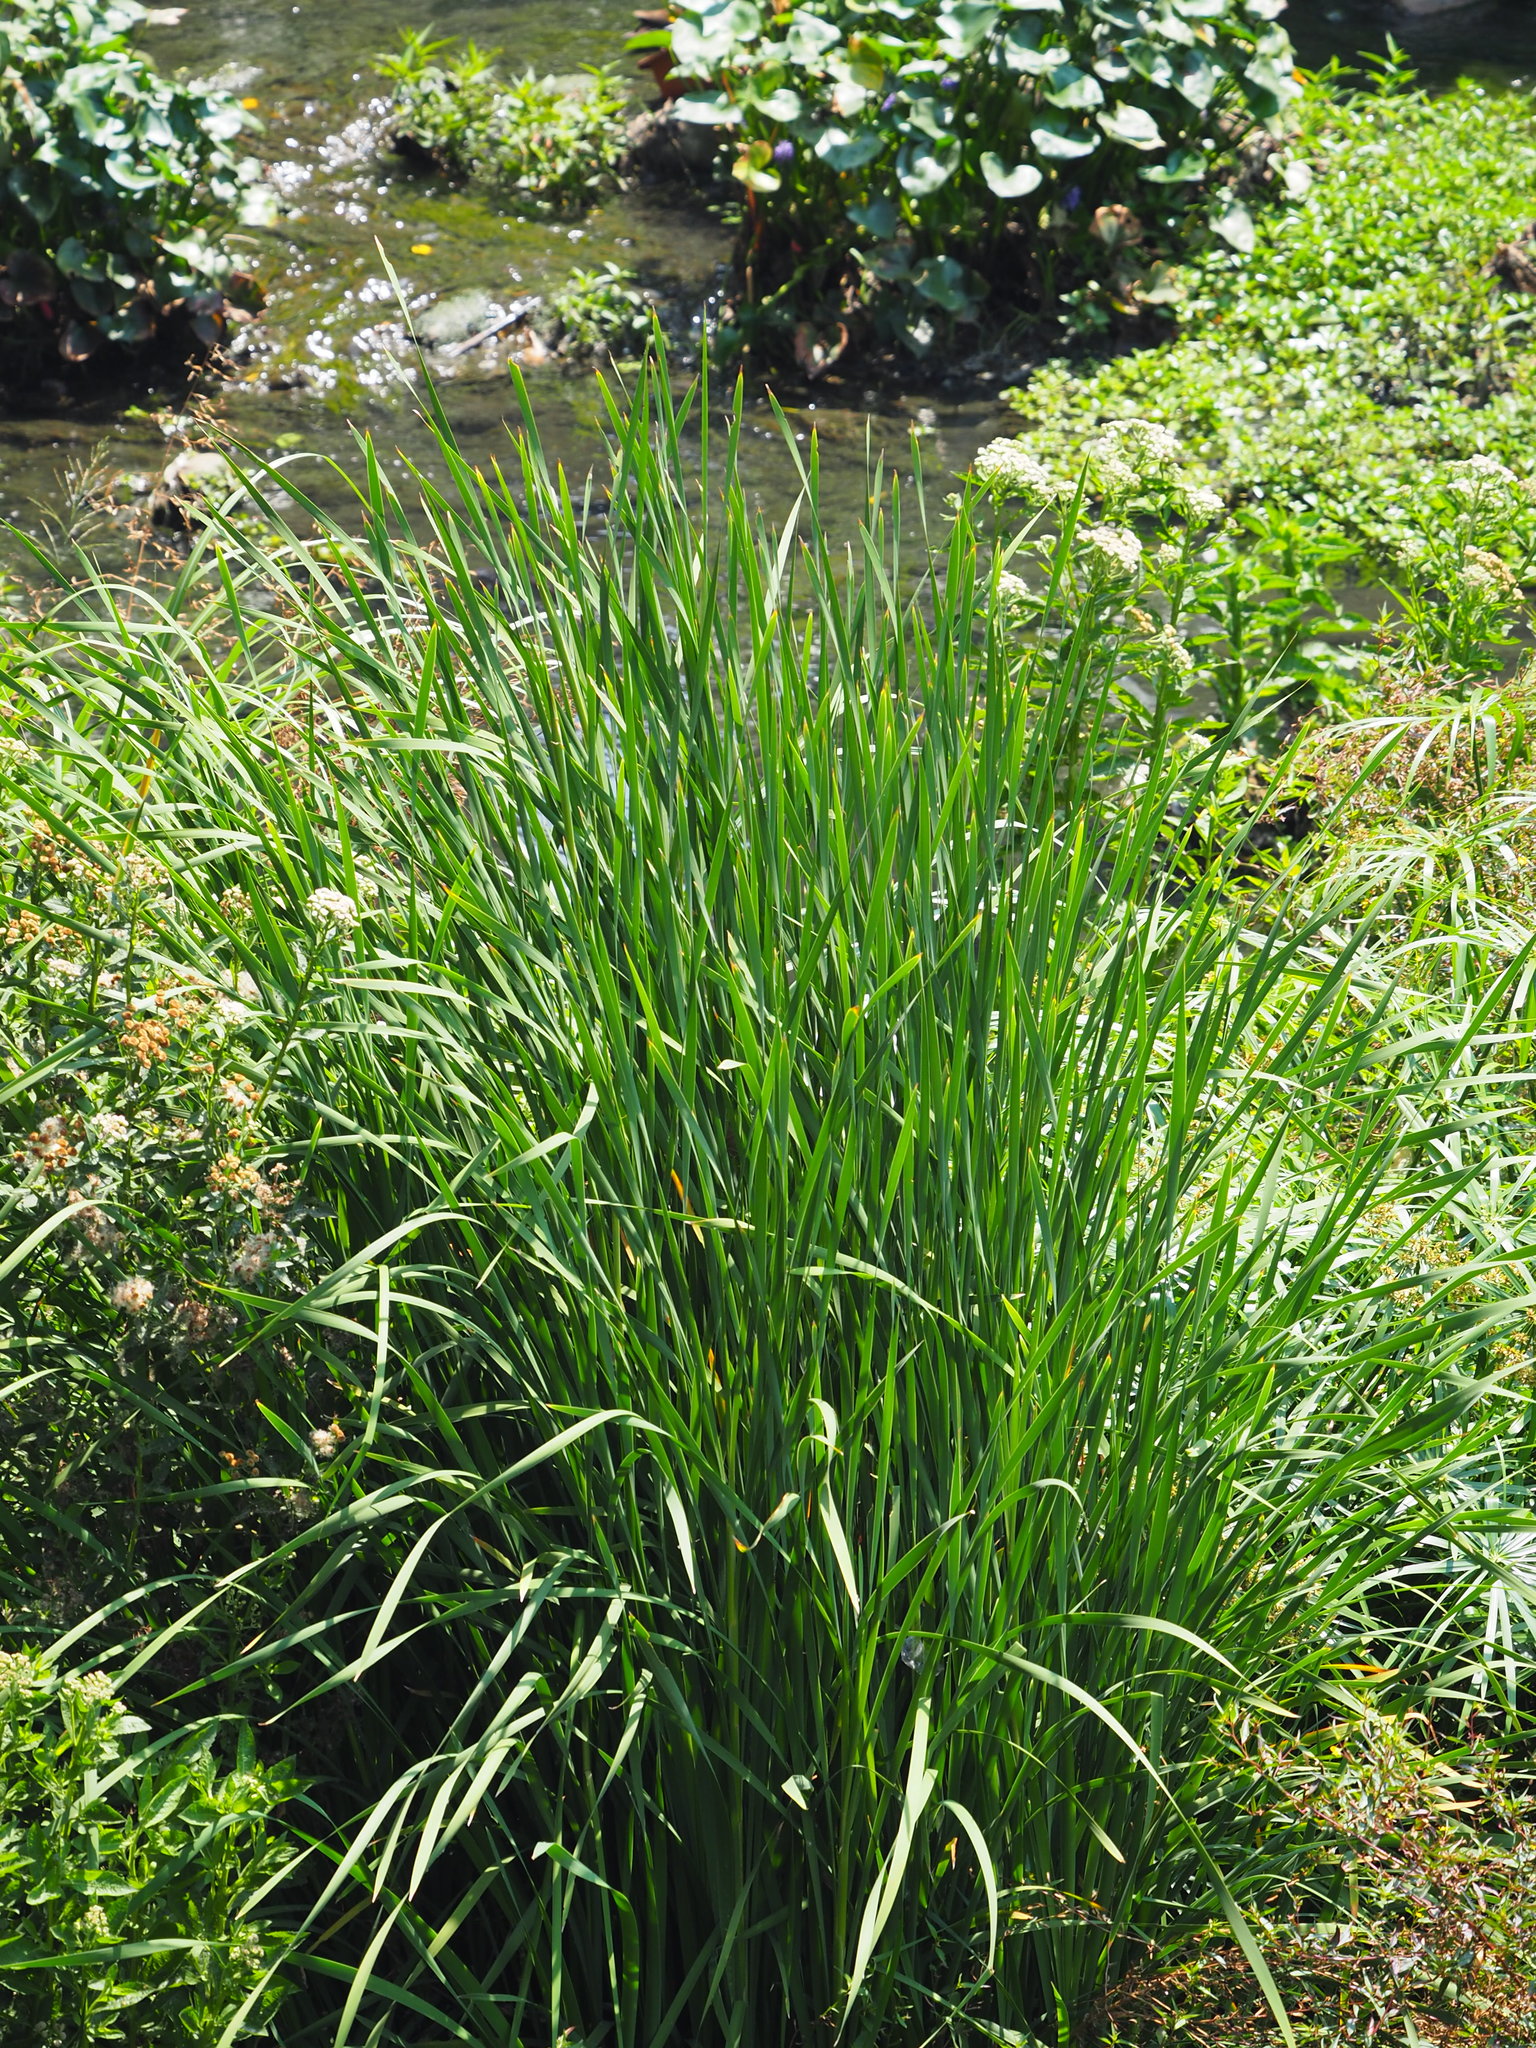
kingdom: Plantae
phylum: Tracheophyta
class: Liliopsida
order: Poales
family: Typhaceae
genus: Typha
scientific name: Typha orientalis
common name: Bullrush
